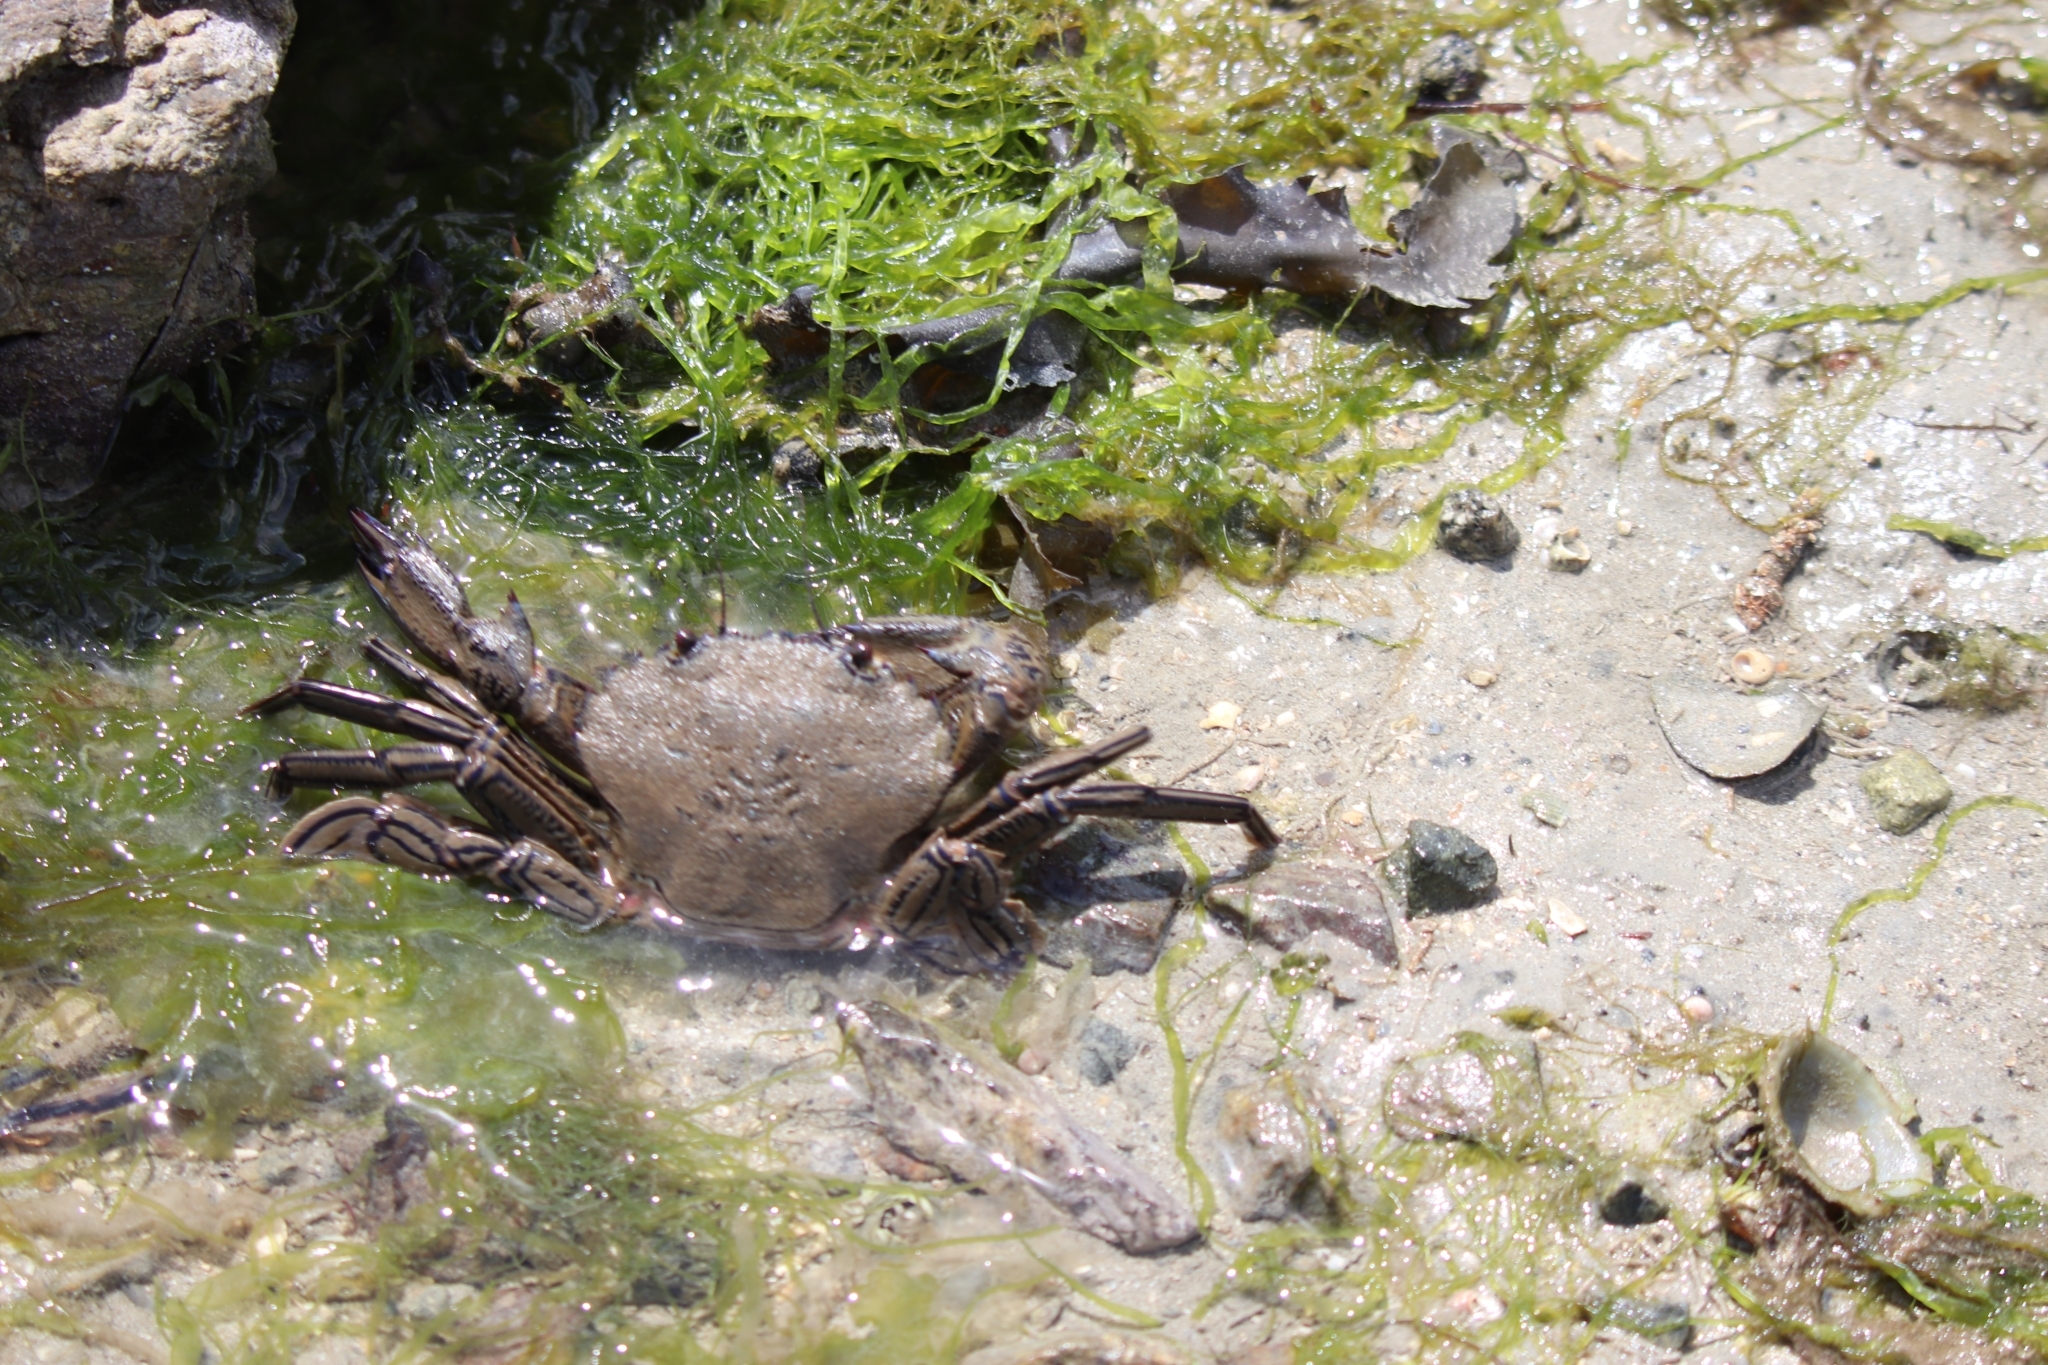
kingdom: Animalia
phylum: Arthropoda
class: Malacostraca
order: Decapoda
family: Polybiidae
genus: Necora
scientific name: Necora puber
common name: Velvet swimming crab
